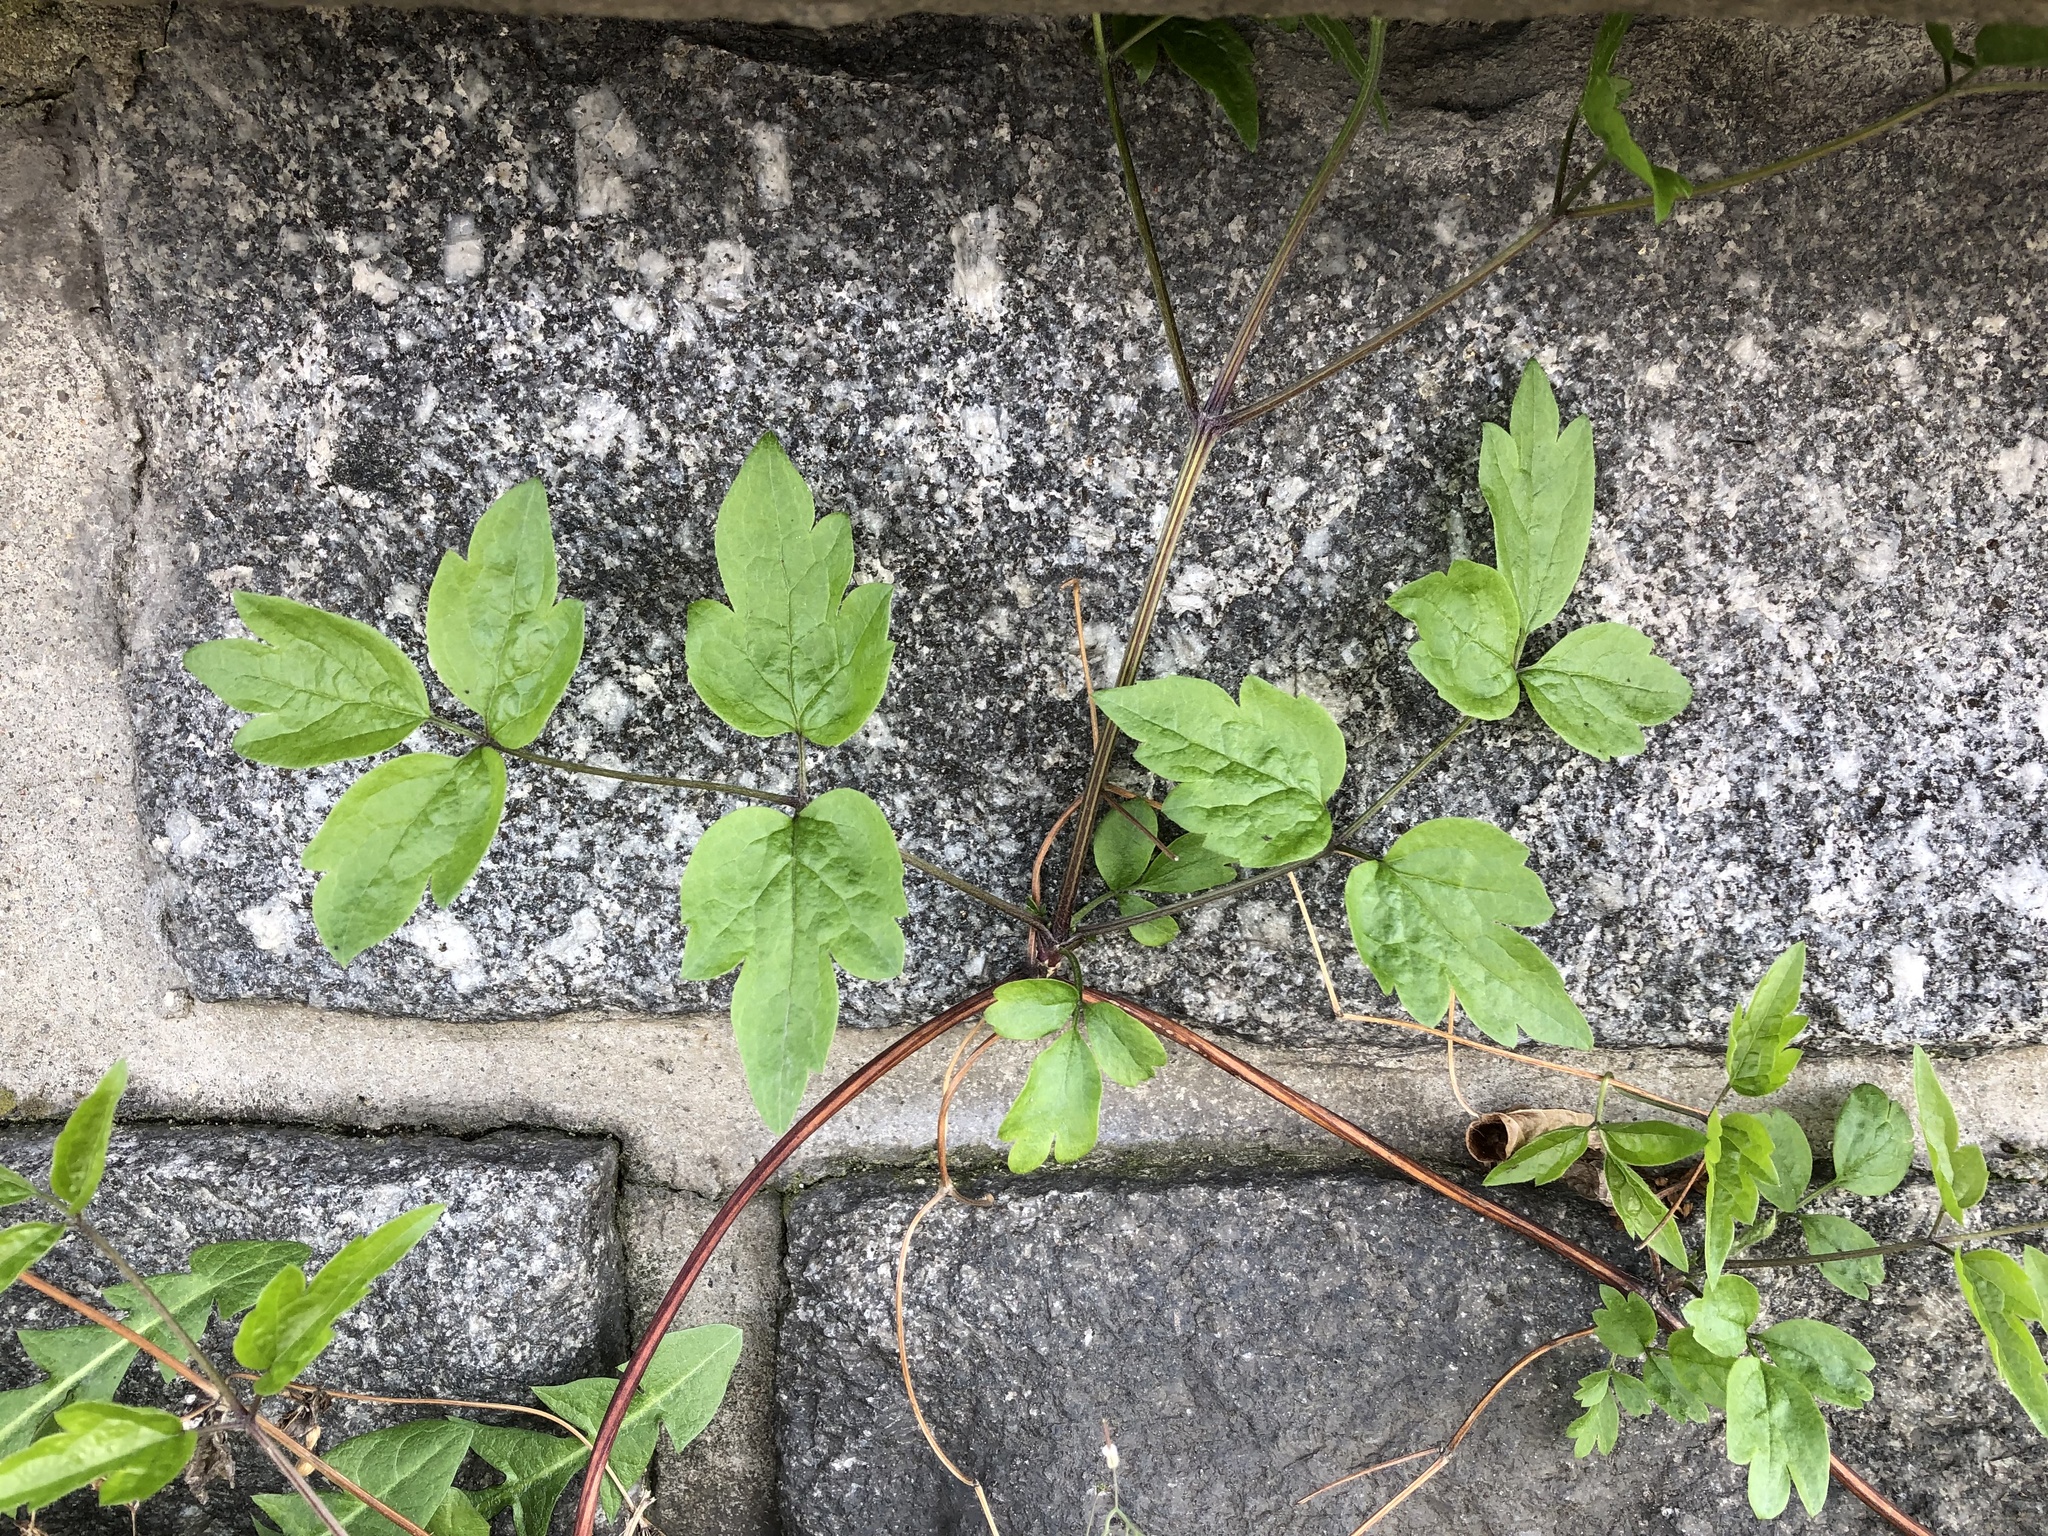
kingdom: Plantae
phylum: Tracheophyta
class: Magnoliopsida
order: Ranunculales
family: Ranunculaceae
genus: Clematis
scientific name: Clematis vitalba
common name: Evergreen clematis
